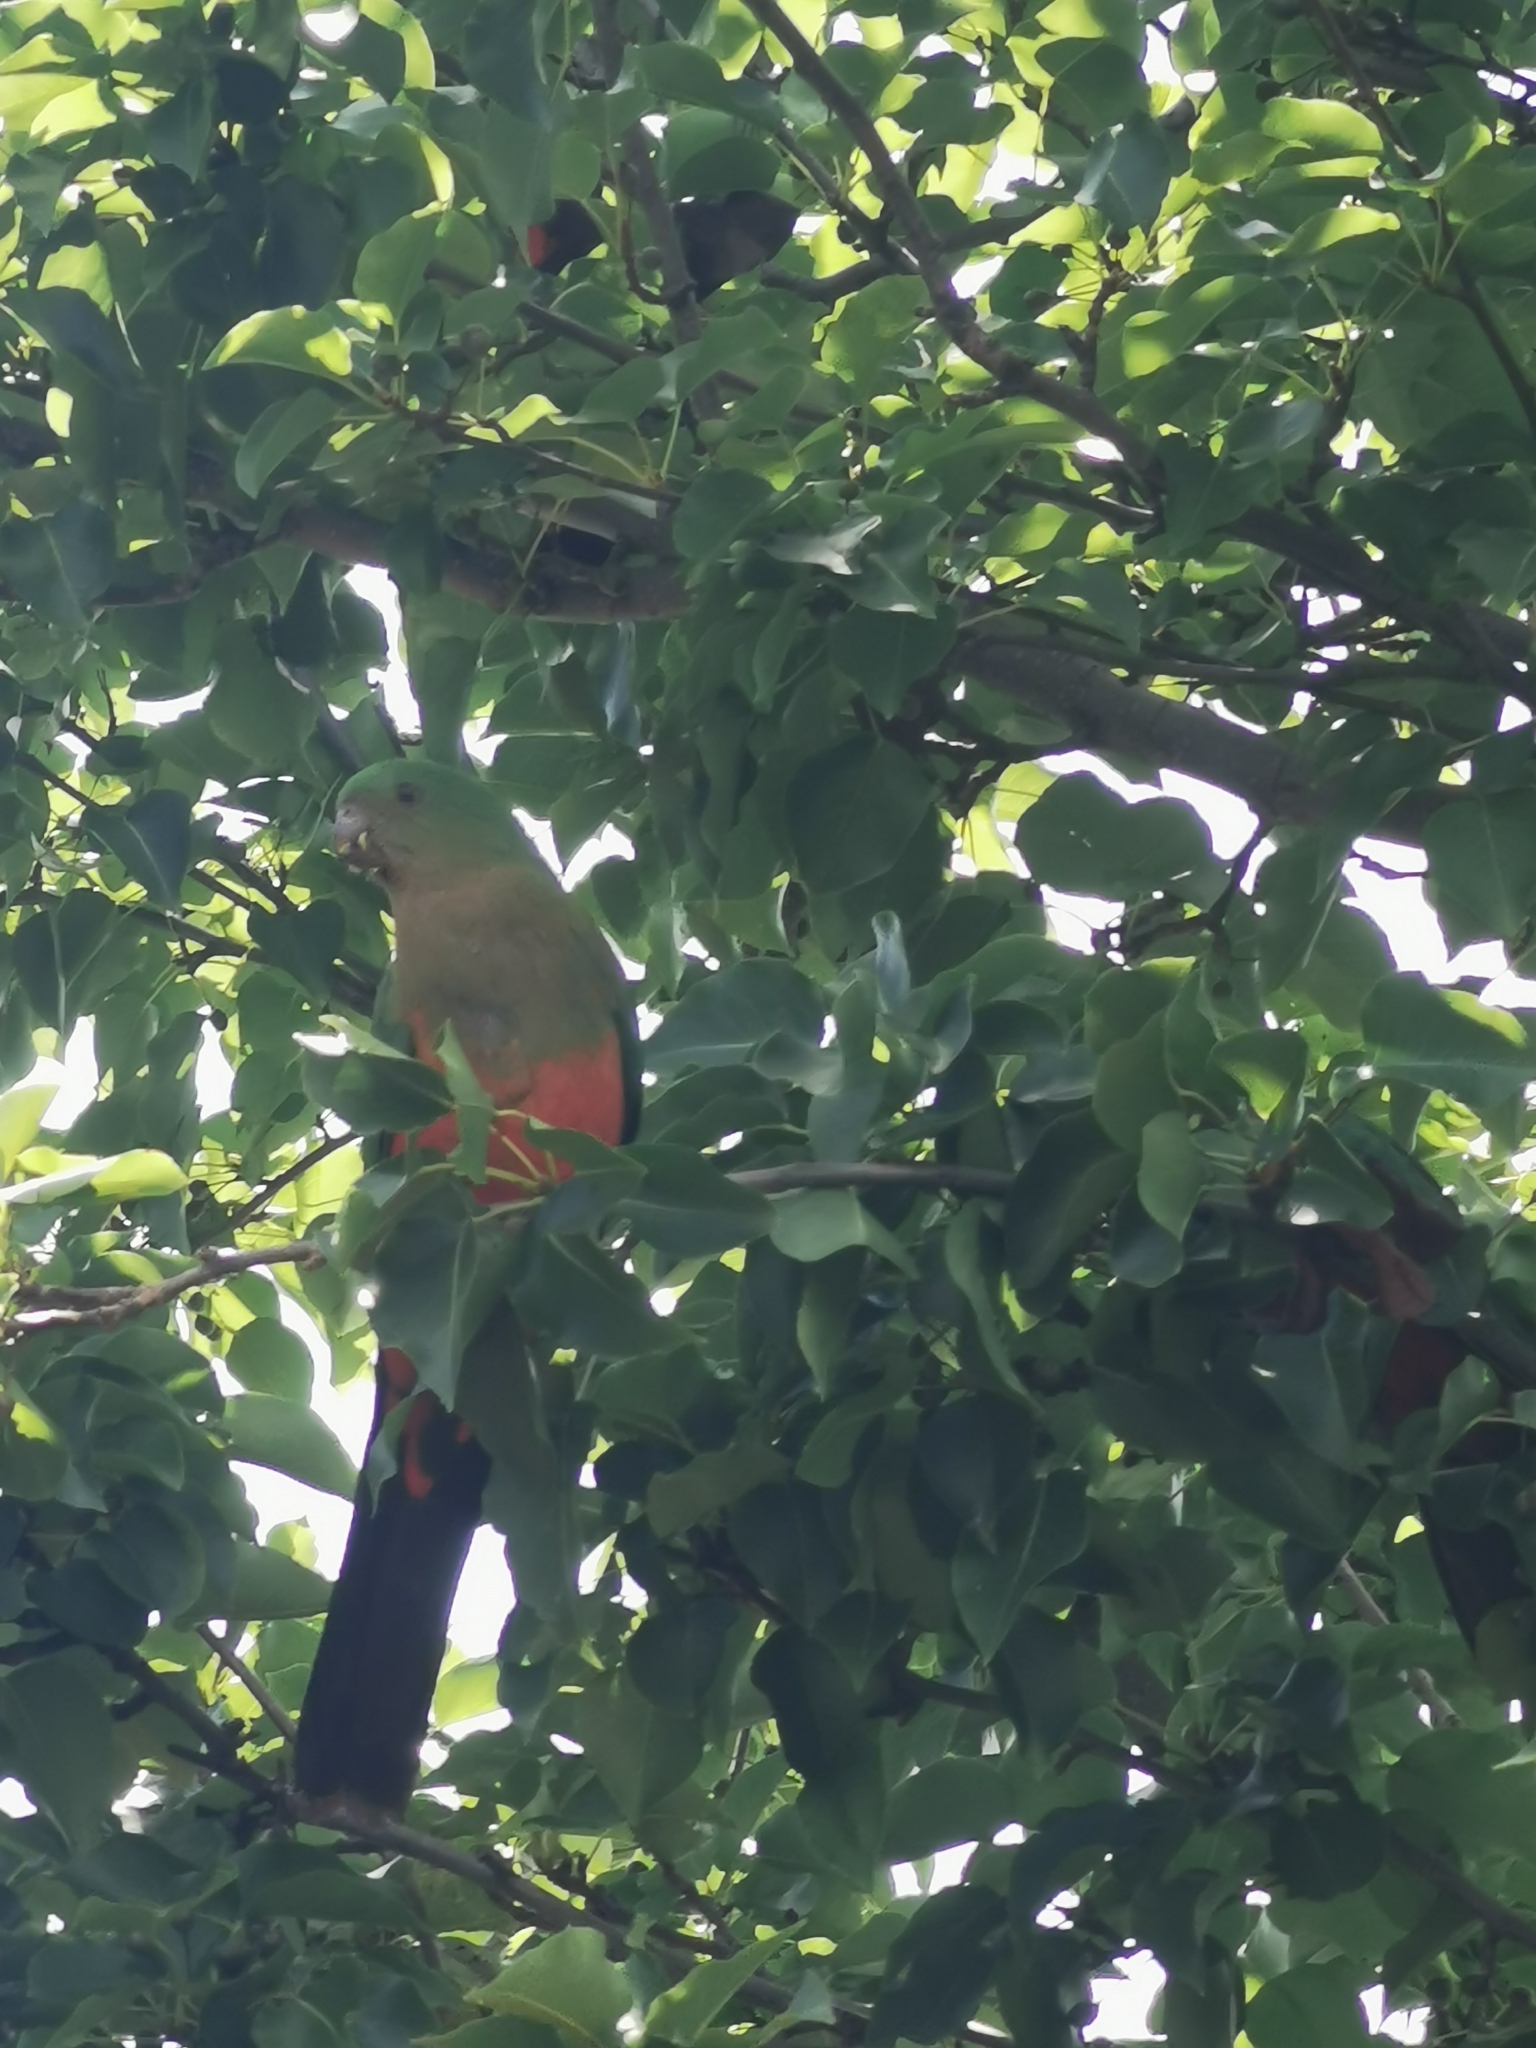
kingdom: Animalia
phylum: Chordata
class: Aves
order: Psittaciformes
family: Psittacidae
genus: Alisterus
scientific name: Alisterus scapularis
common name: Australian king parrot
